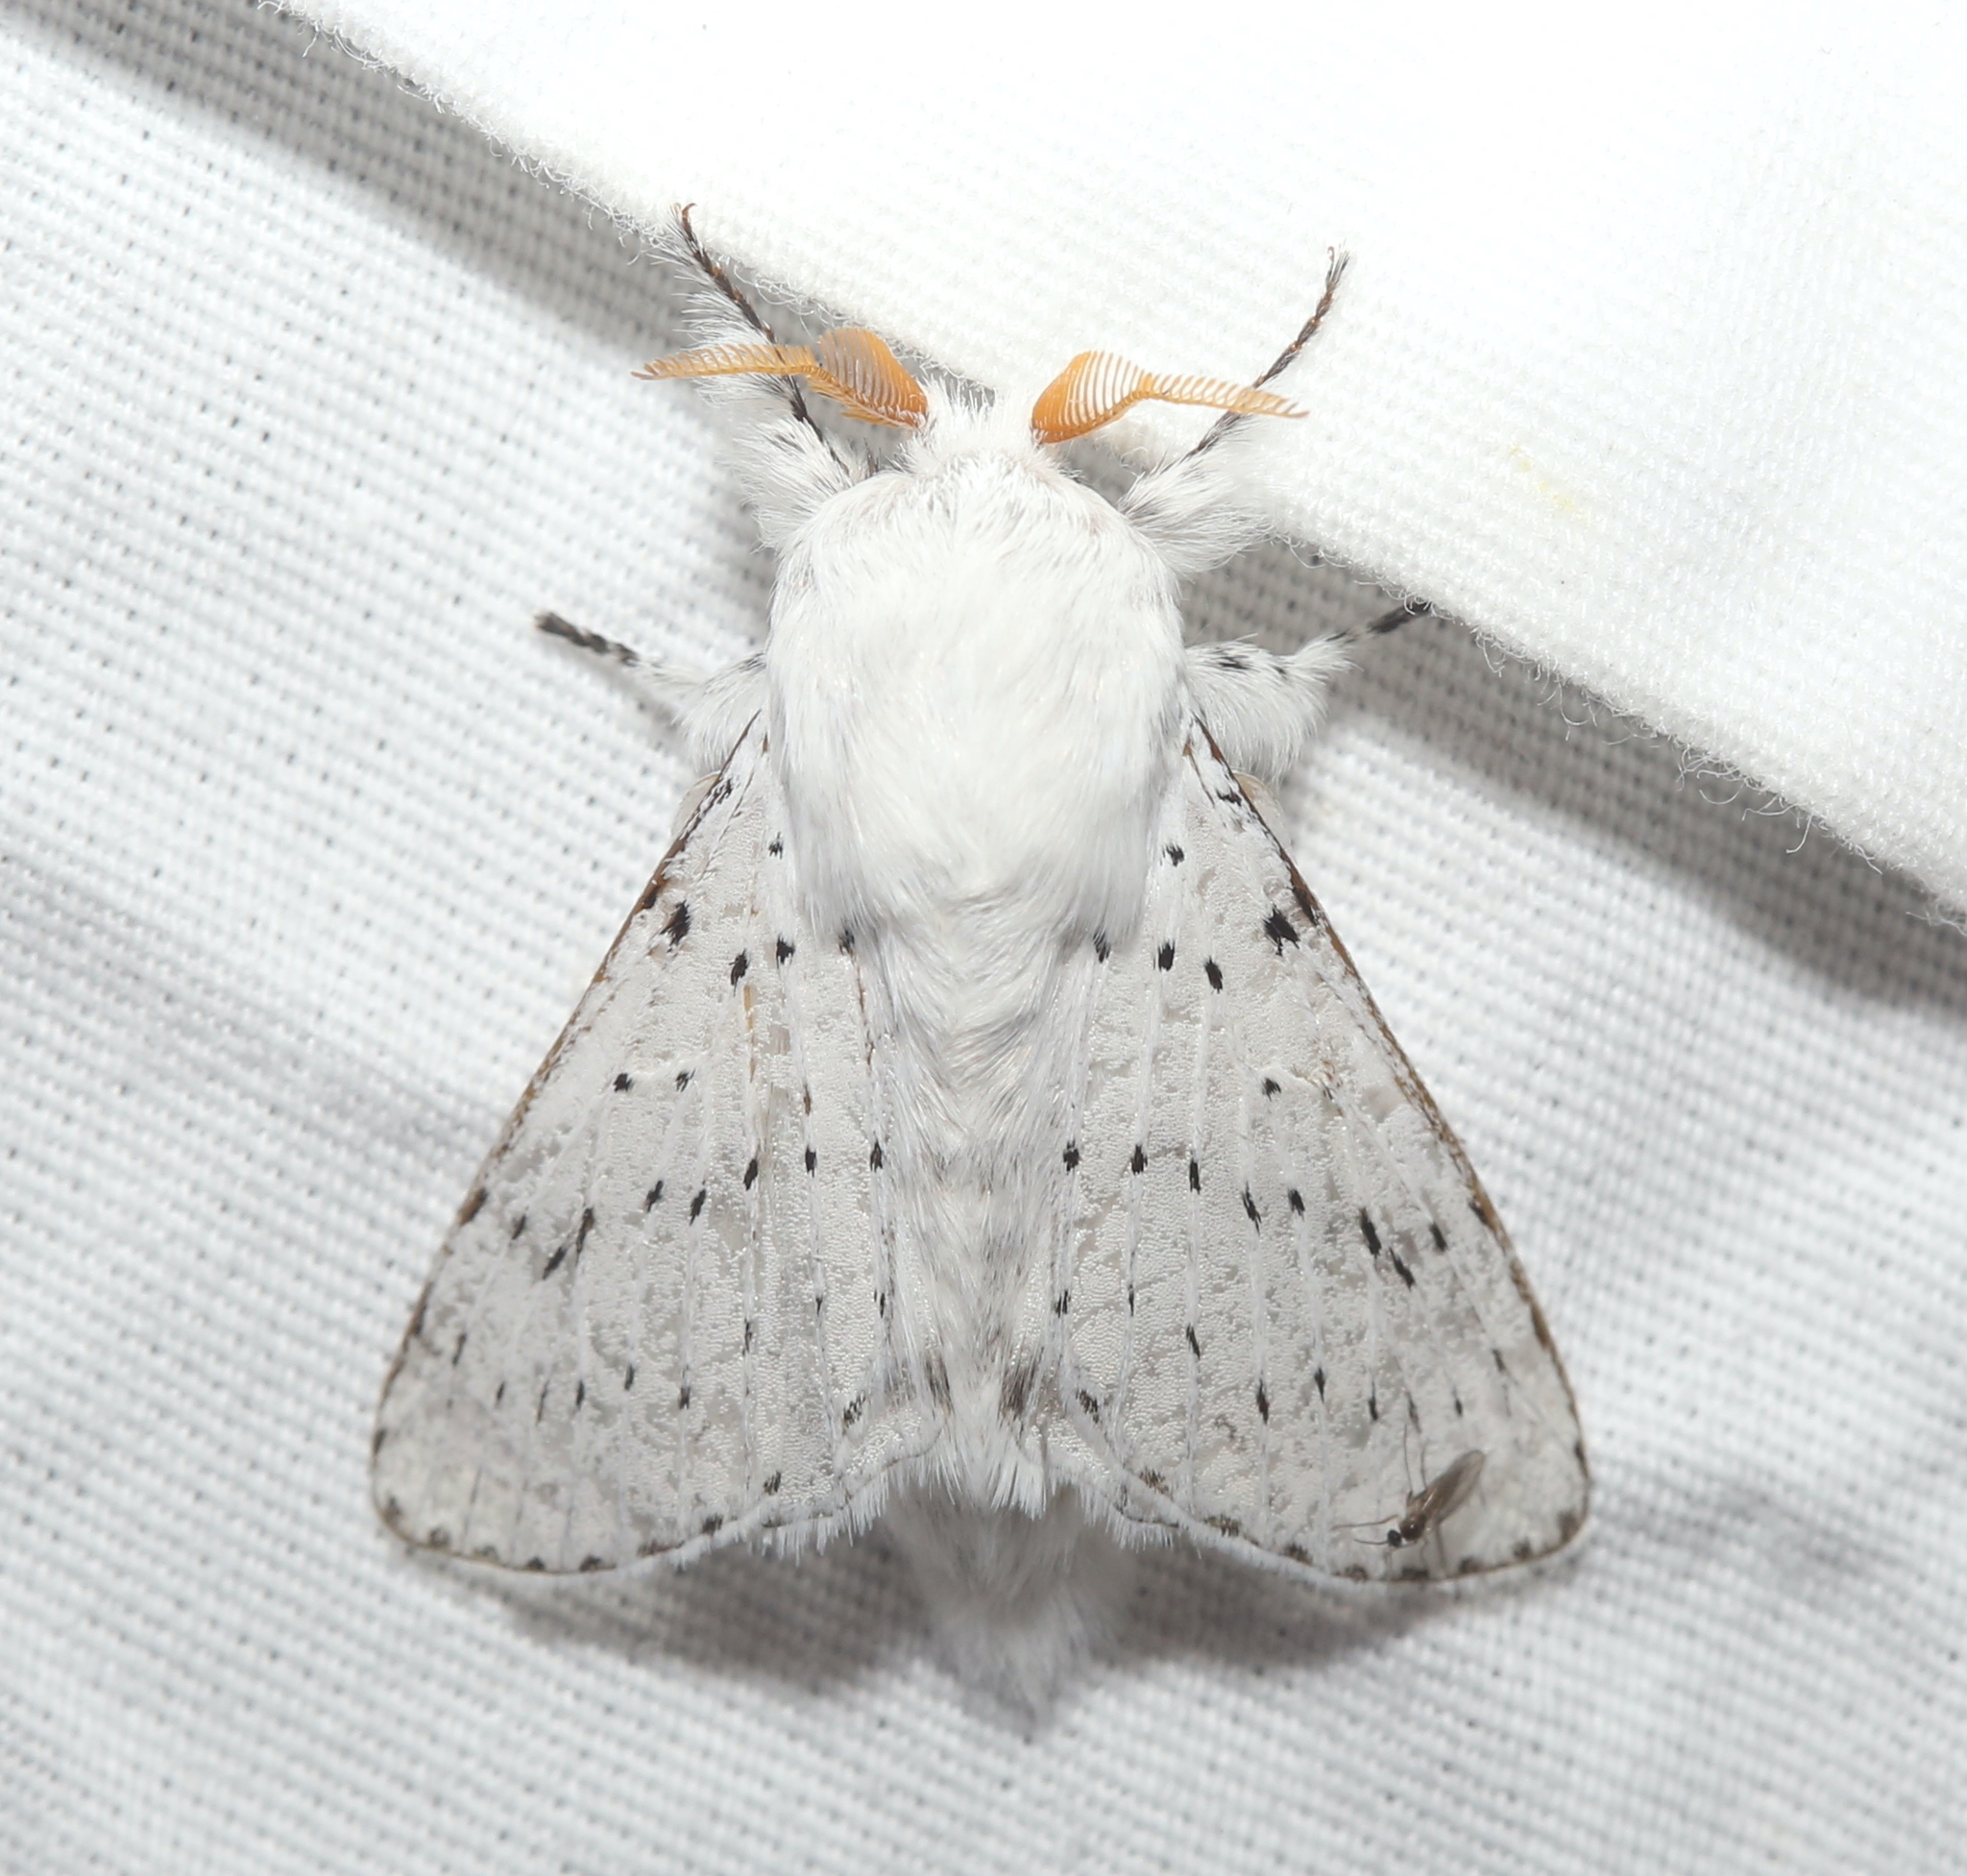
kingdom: Animalia
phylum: Arthropoda
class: Insecta
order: Lepidoptera
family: Lasiocampidae
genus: Artace
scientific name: Artace cribrarius
